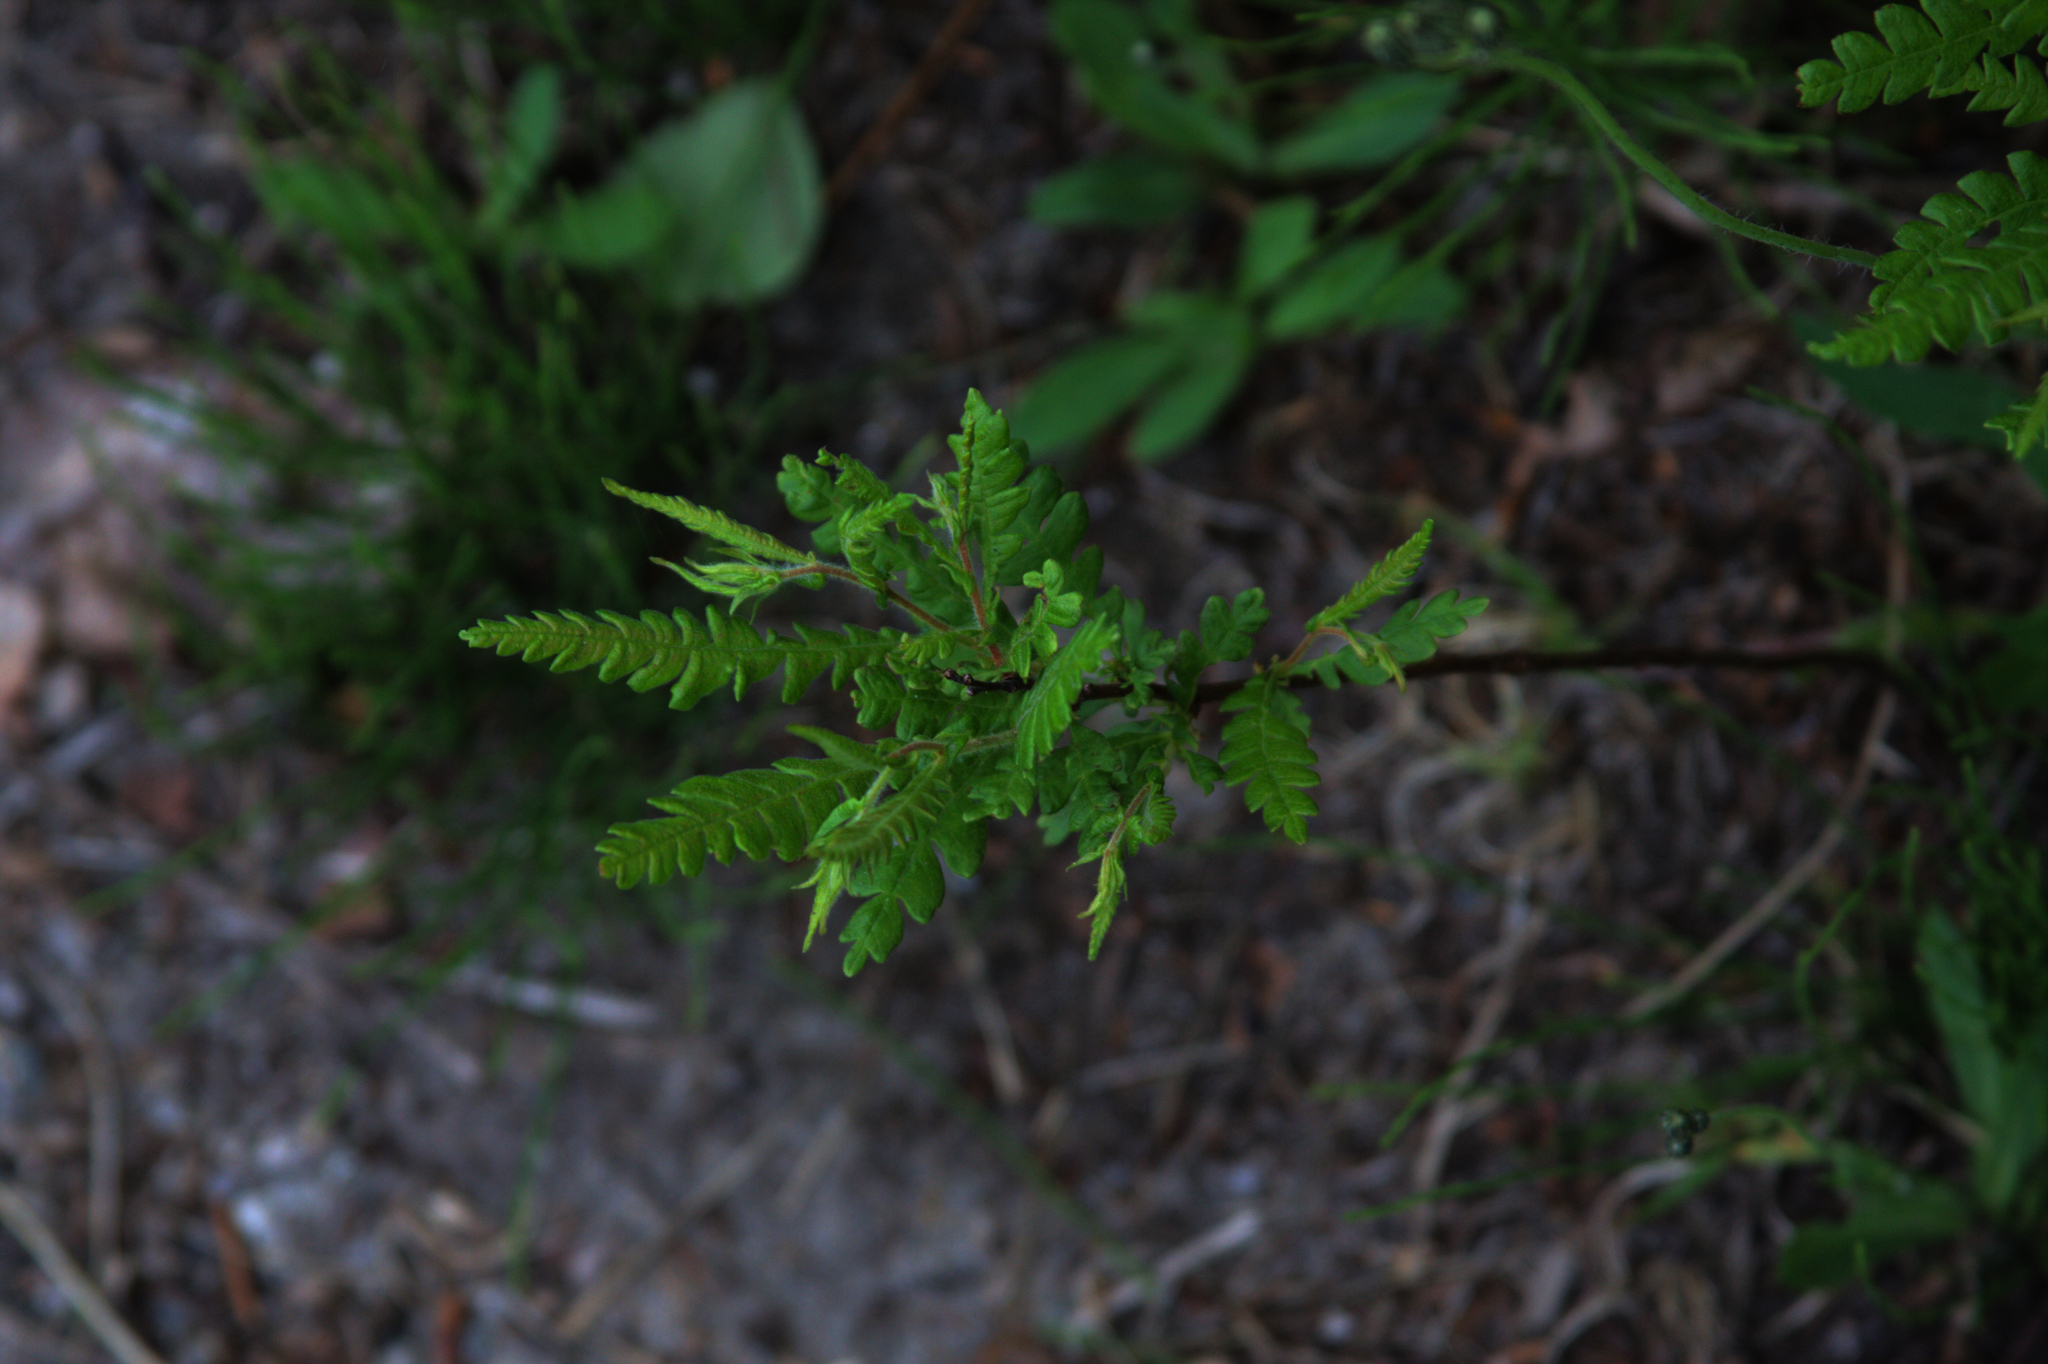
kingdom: Plantae
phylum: Tracheophyta
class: Magnoliopsida
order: Fagales
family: Myricaceae
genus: Comptonia
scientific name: Comptonia peregrina
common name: Sweet-fern
